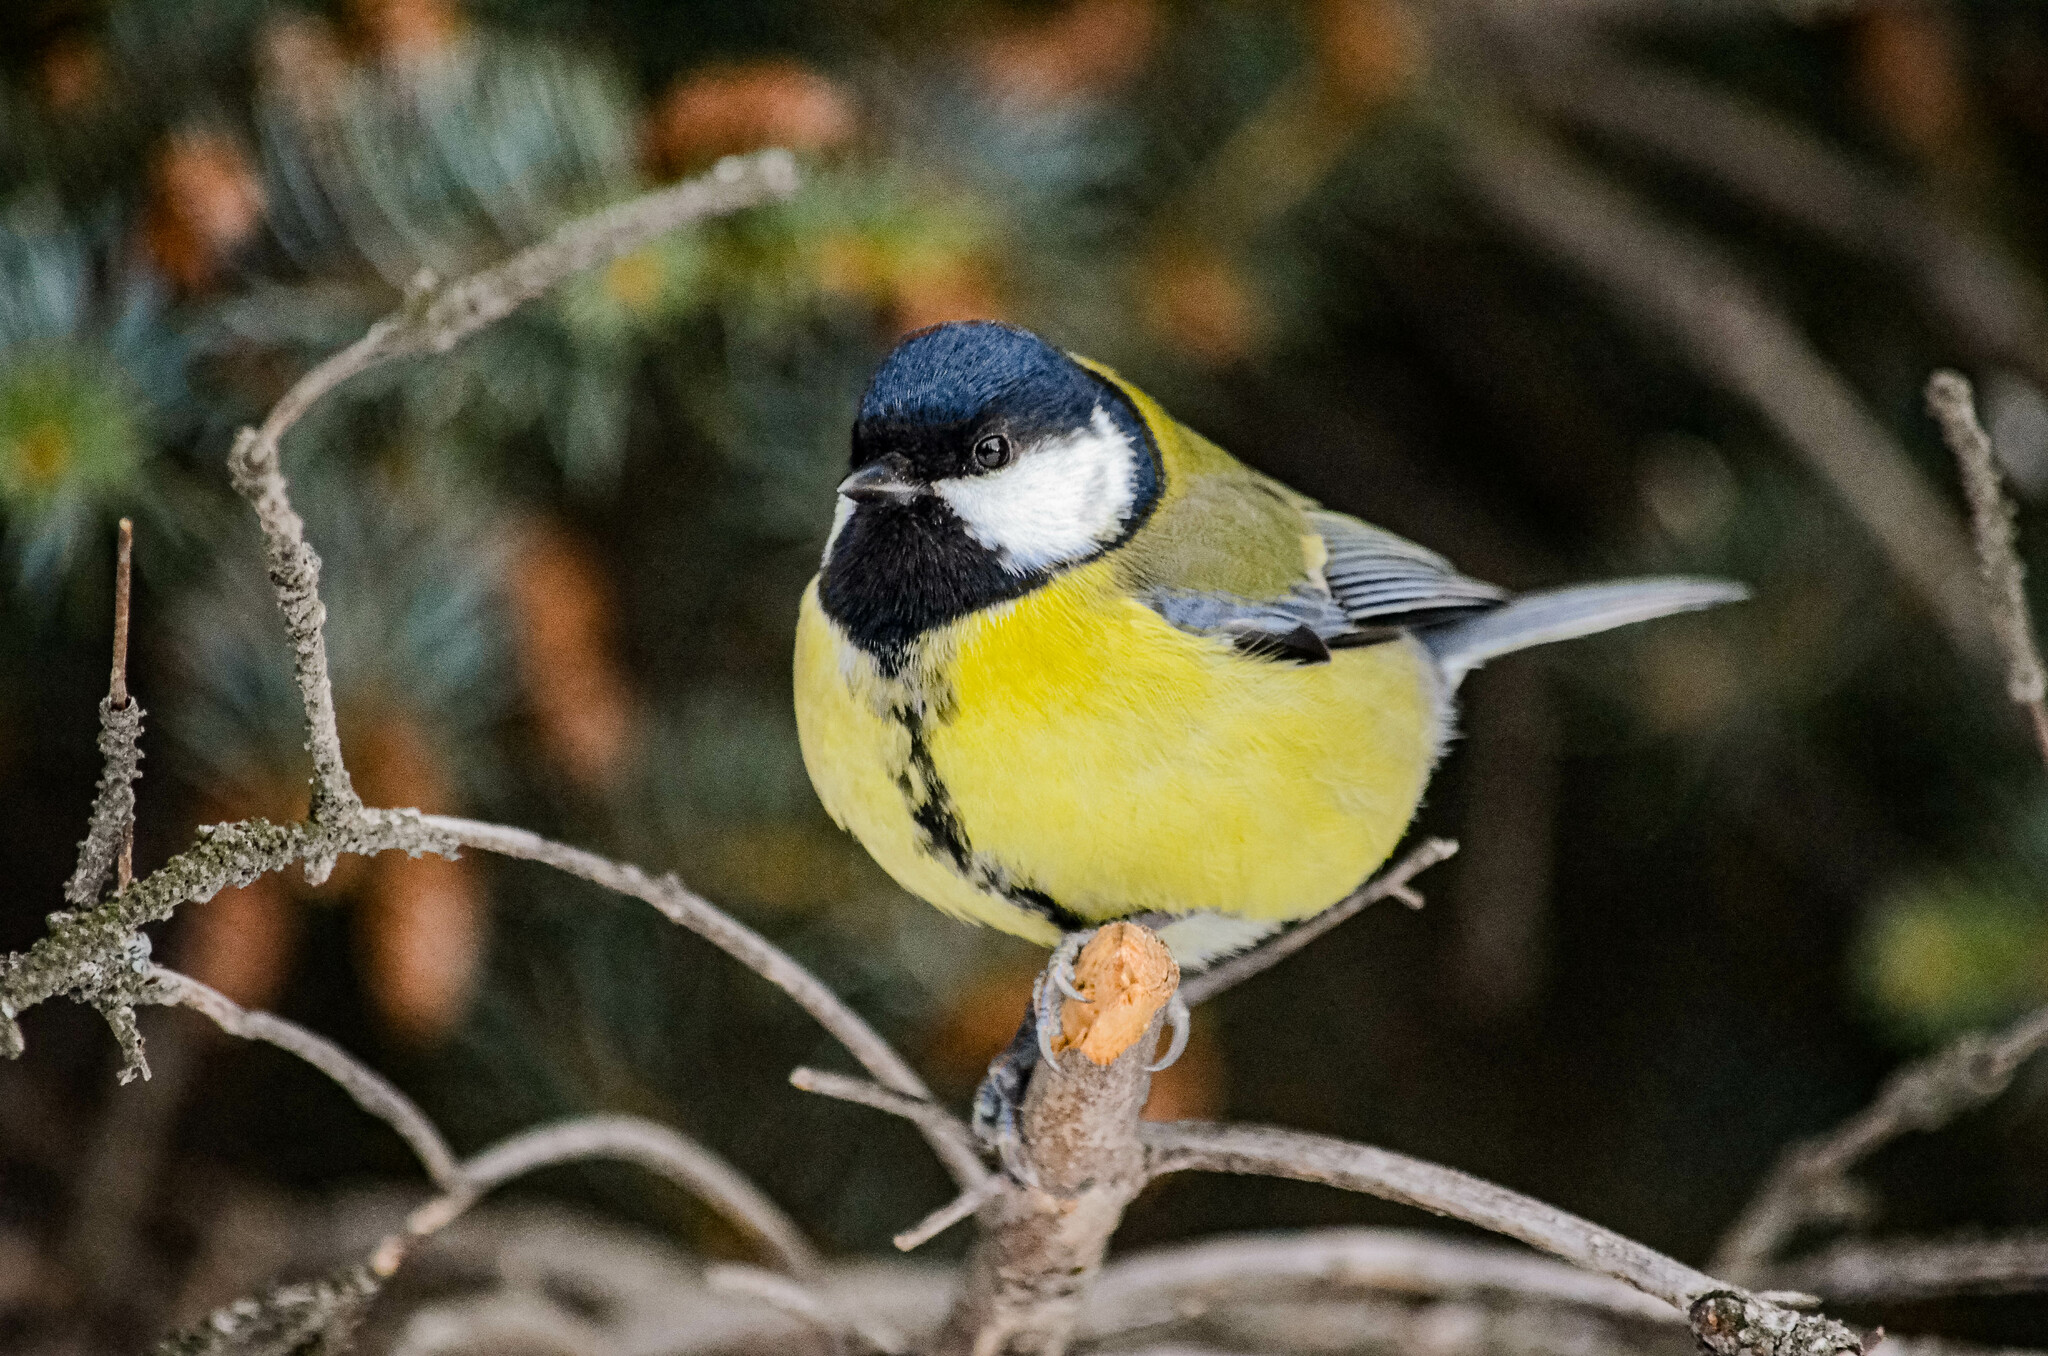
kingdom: Animalia
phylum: Chordata
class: Aves
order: Passeriformes
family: Paridae
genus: Parus
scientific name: Parus major
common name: Great tit
